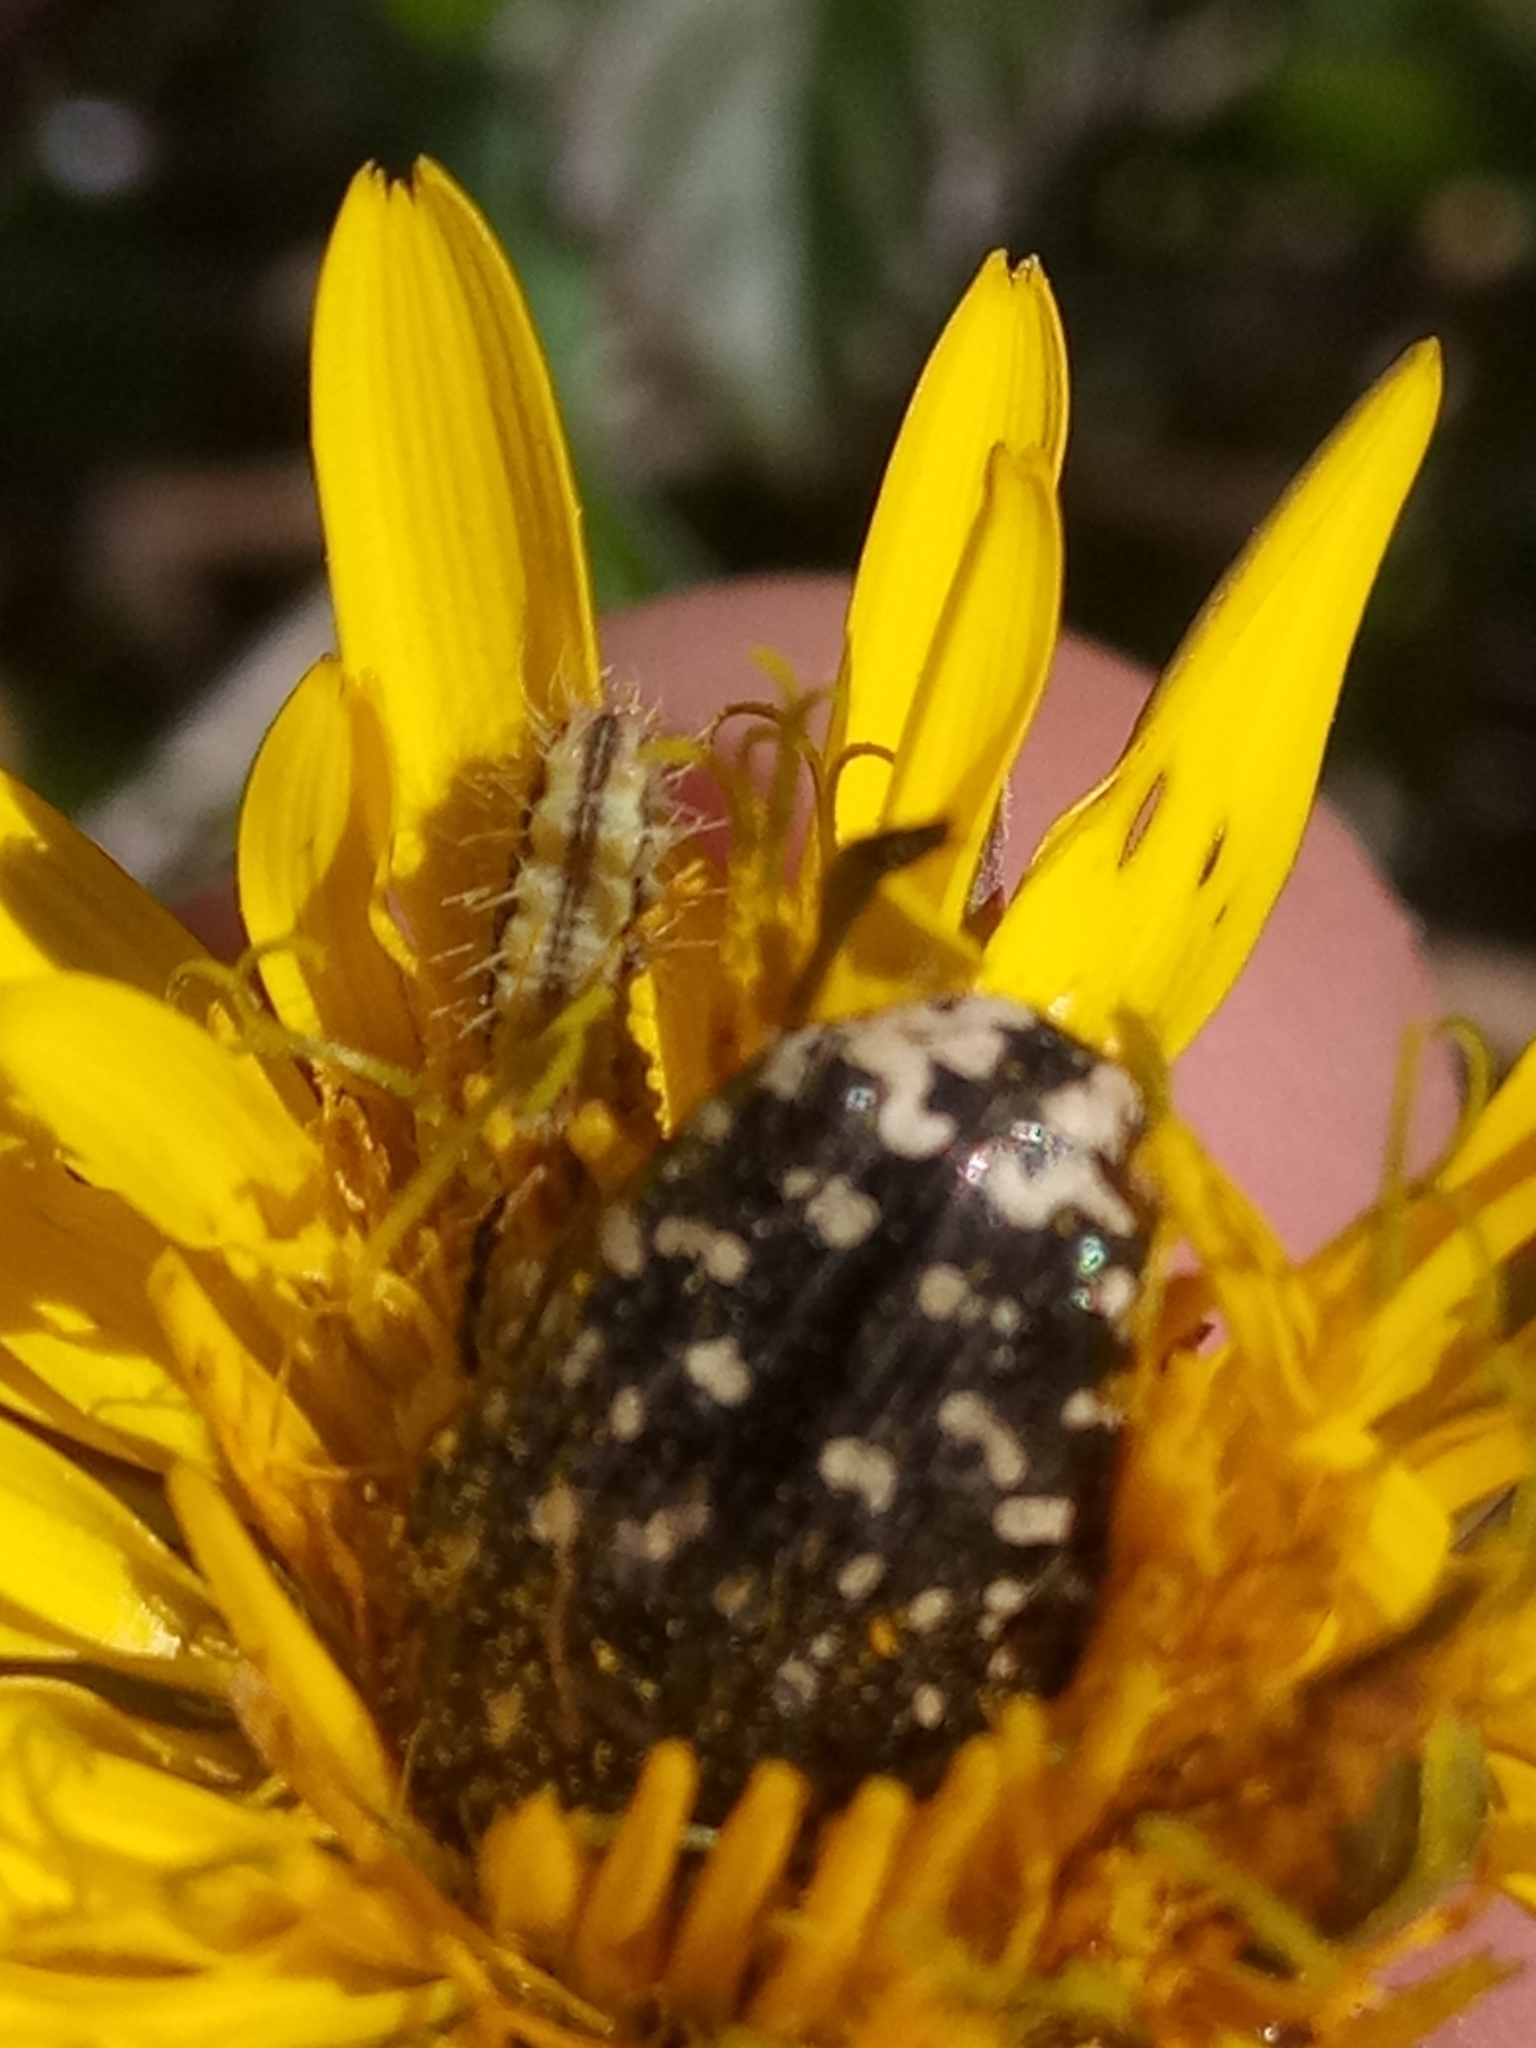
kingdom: Animalia
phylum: Arthropoda
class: Insecta
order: Coleoptera
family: Scarabaeidae
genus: Oxythyrea
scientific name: Oxythyrea funesta
